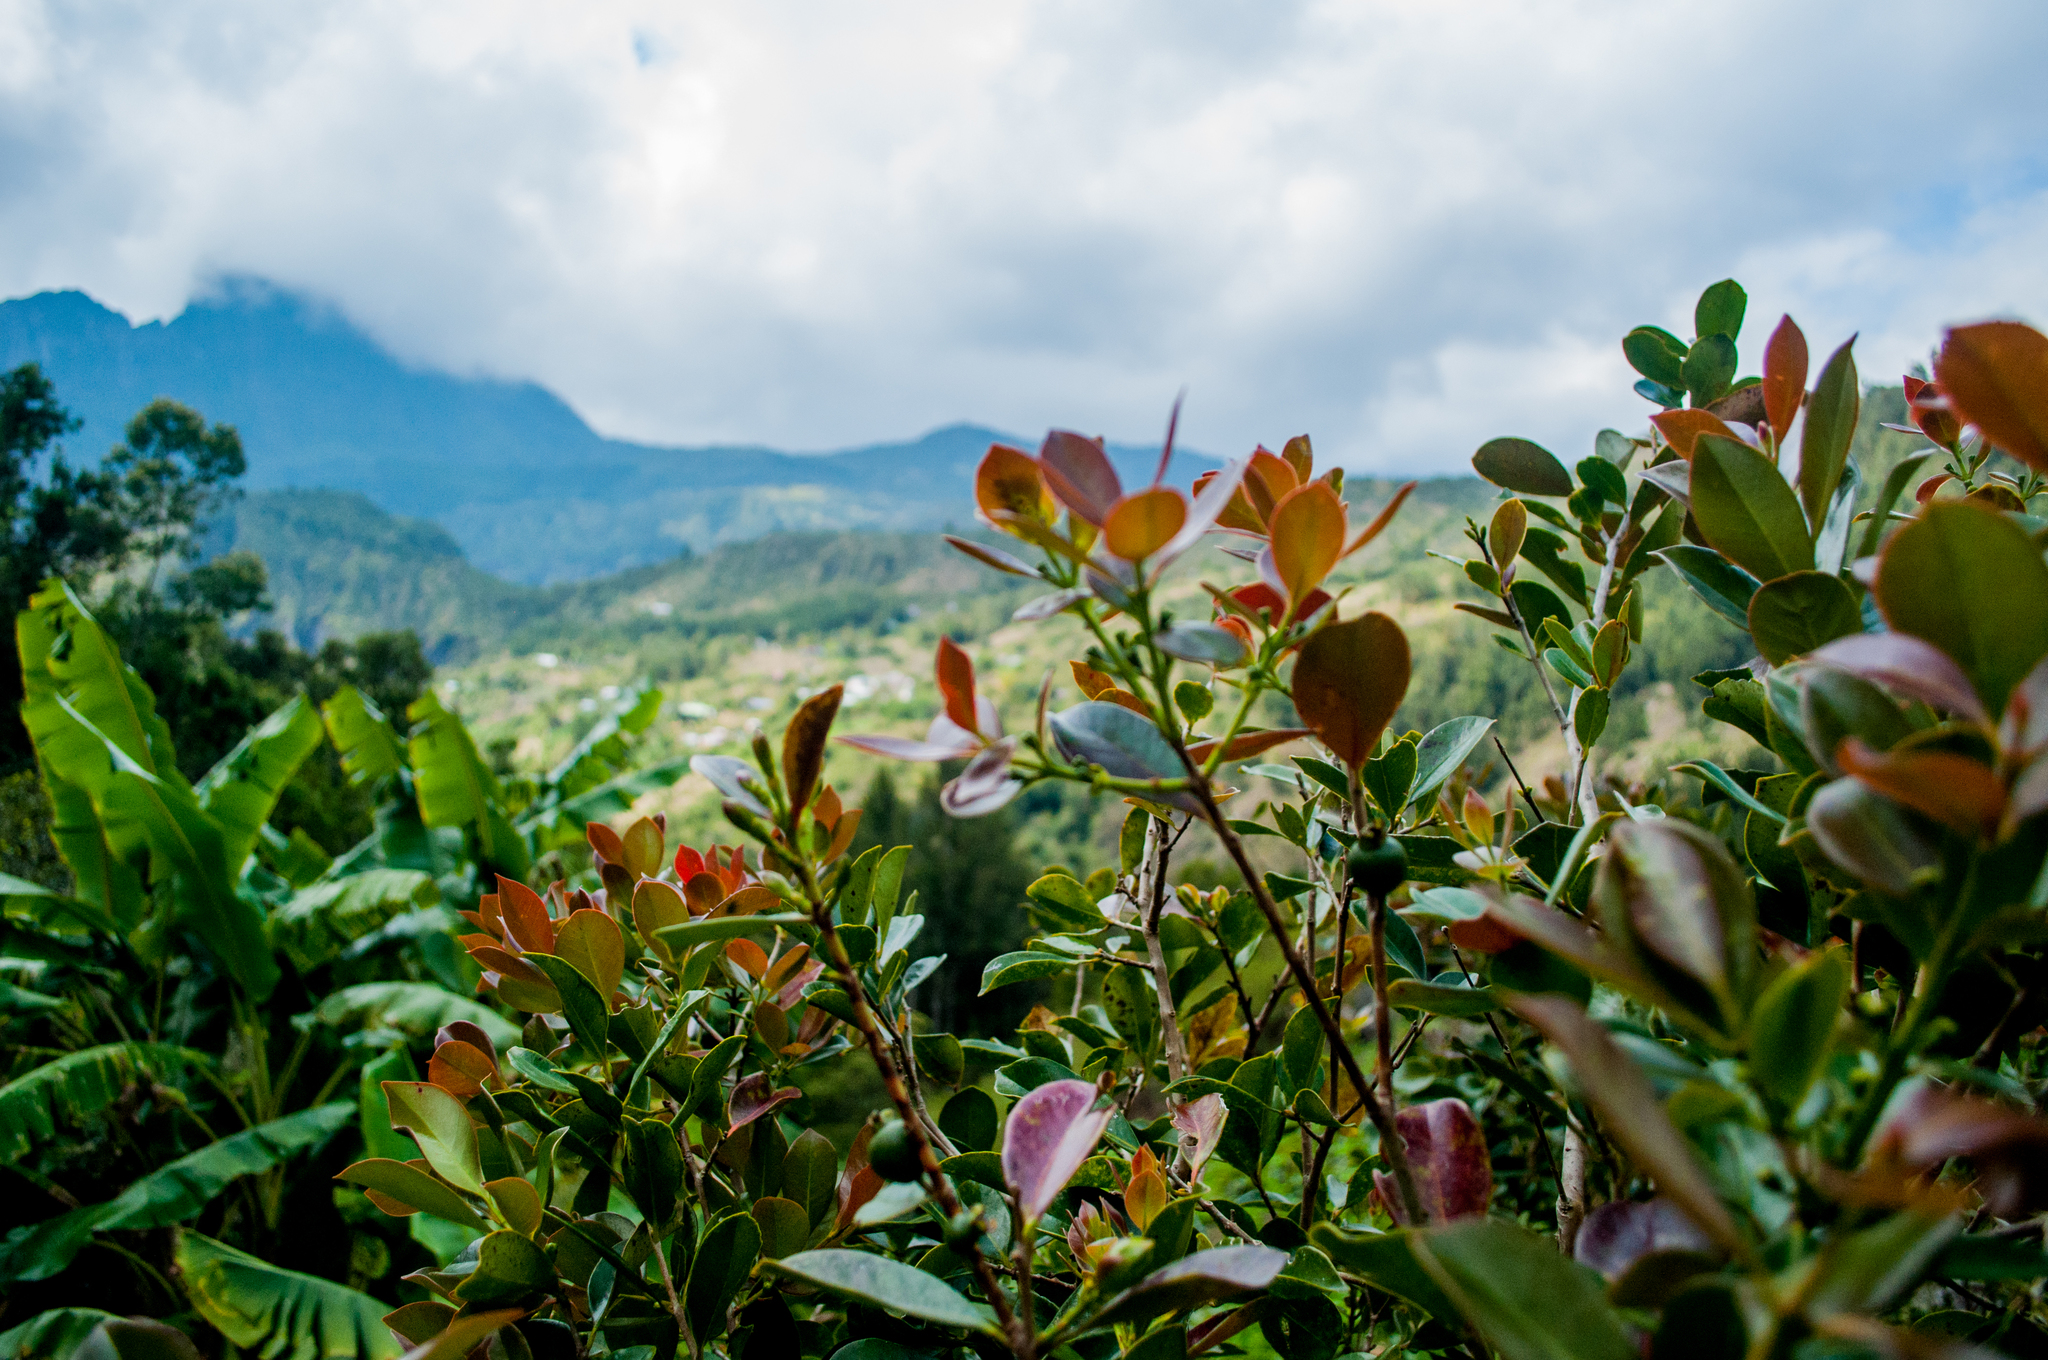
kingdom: Plantae
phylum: Tracheophyta
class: Magnoliopsida
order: Myrtales
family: Myrtaceae
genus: Psidium
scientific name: Psidium cattleianum
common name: Strawberry guava
